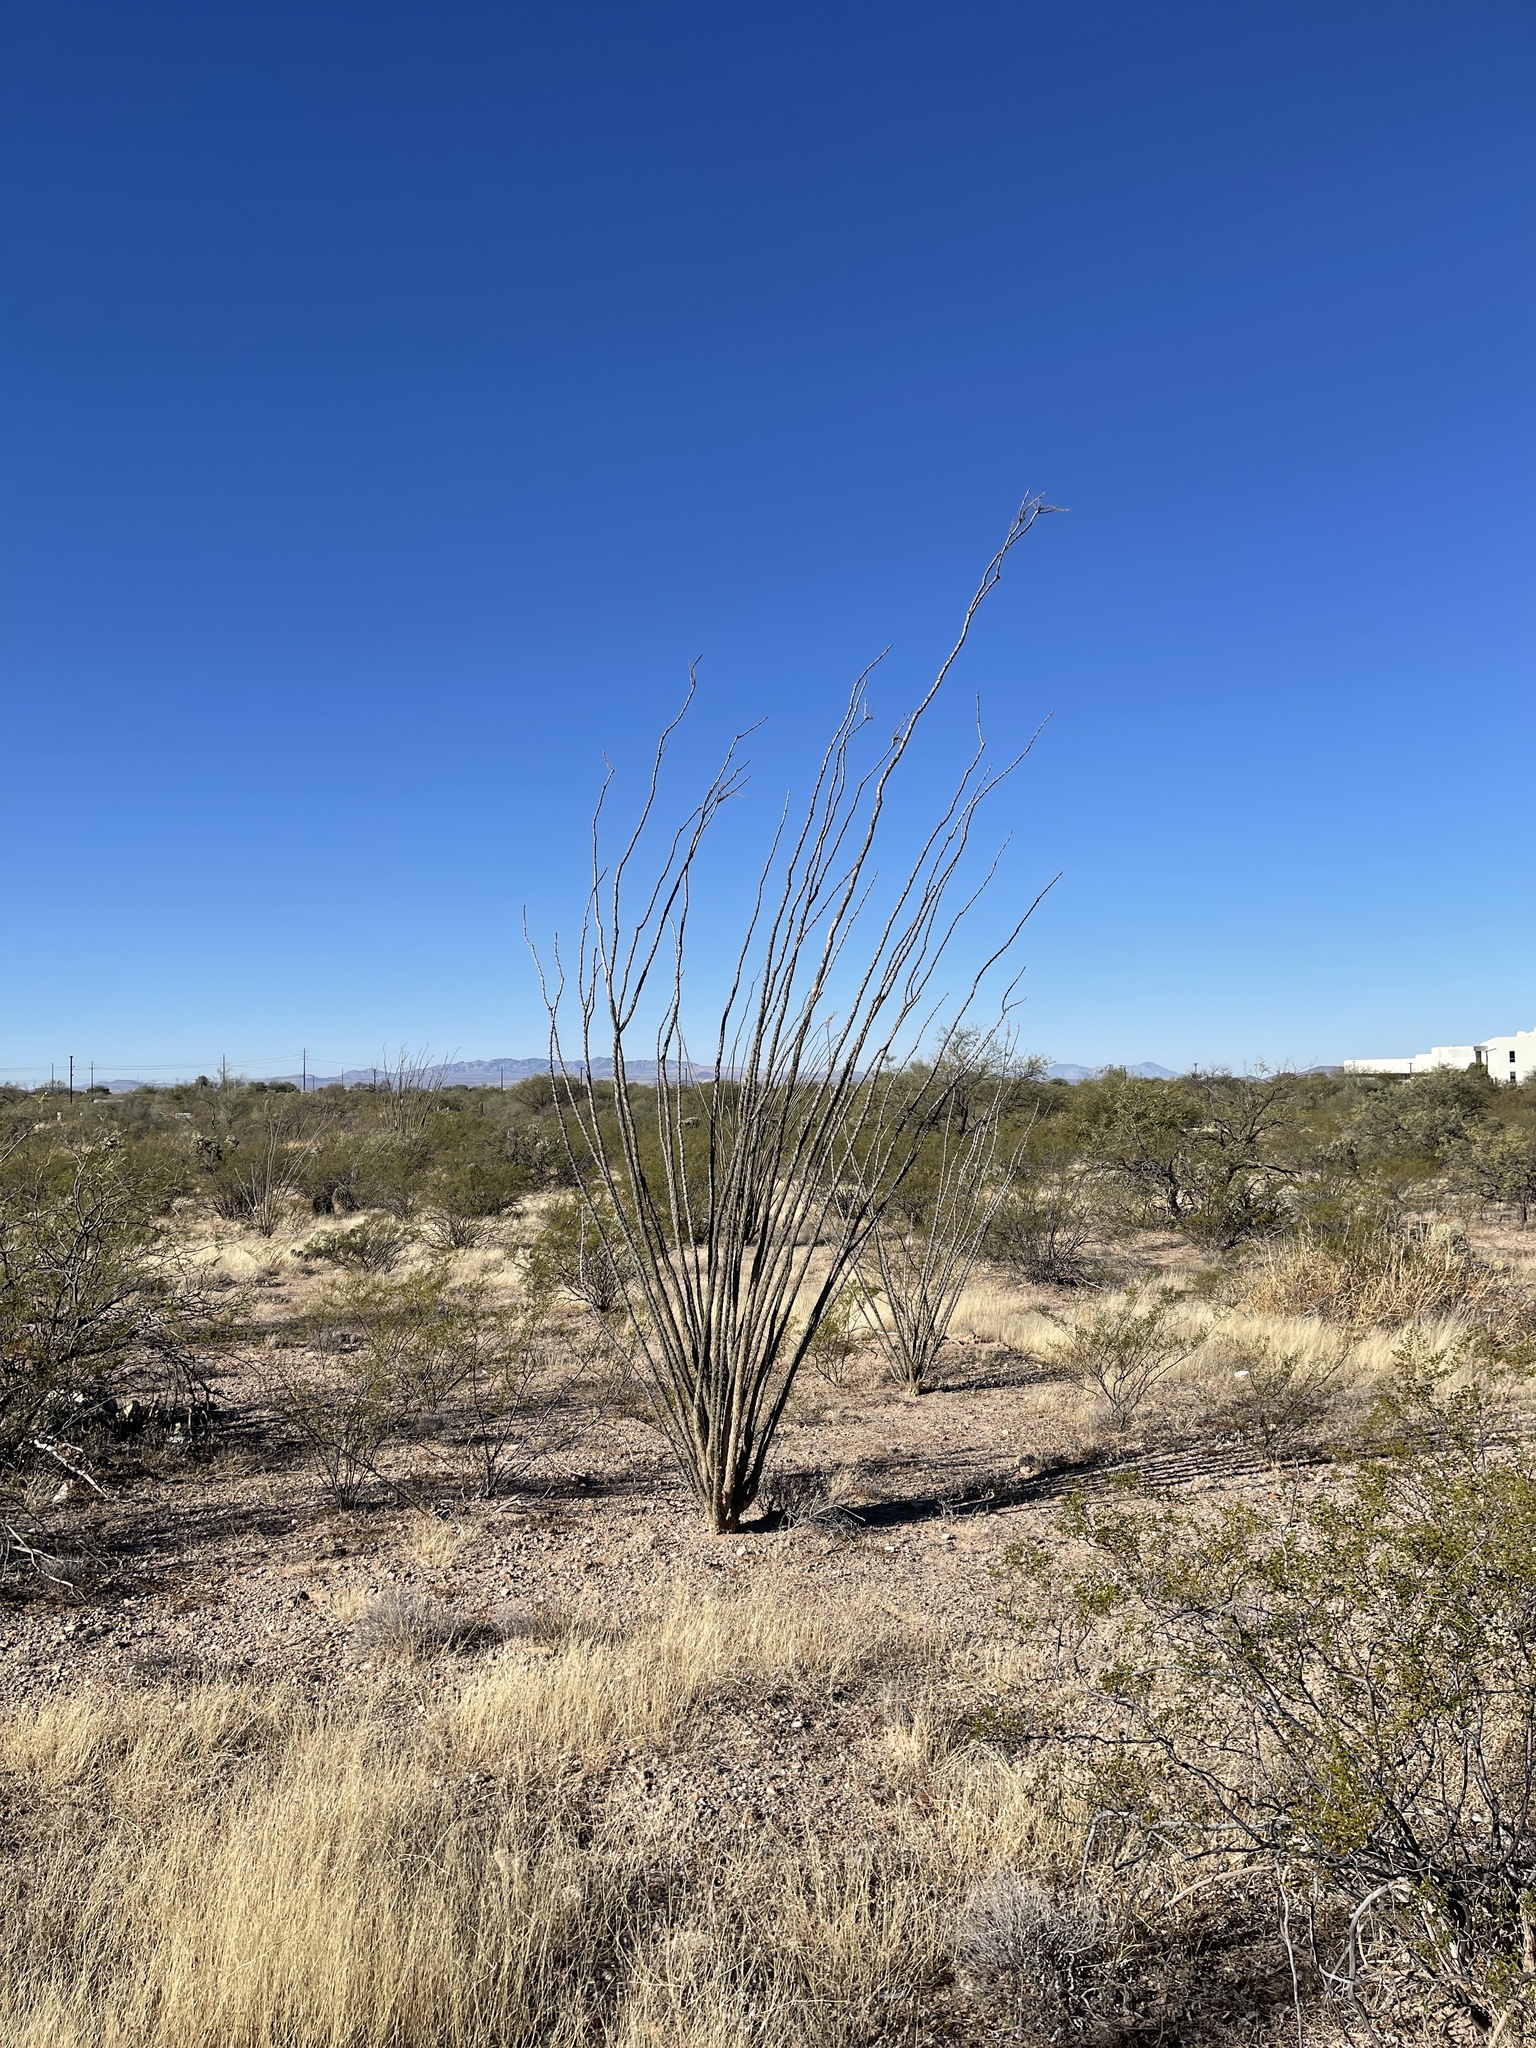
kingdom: Plantae
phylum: Tracheophyta
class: Magnoliopsida
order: Ericales
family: Fouquieriaceae
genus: Fouquieria
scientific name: Fouquieria splendens
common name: Vine-cactus
